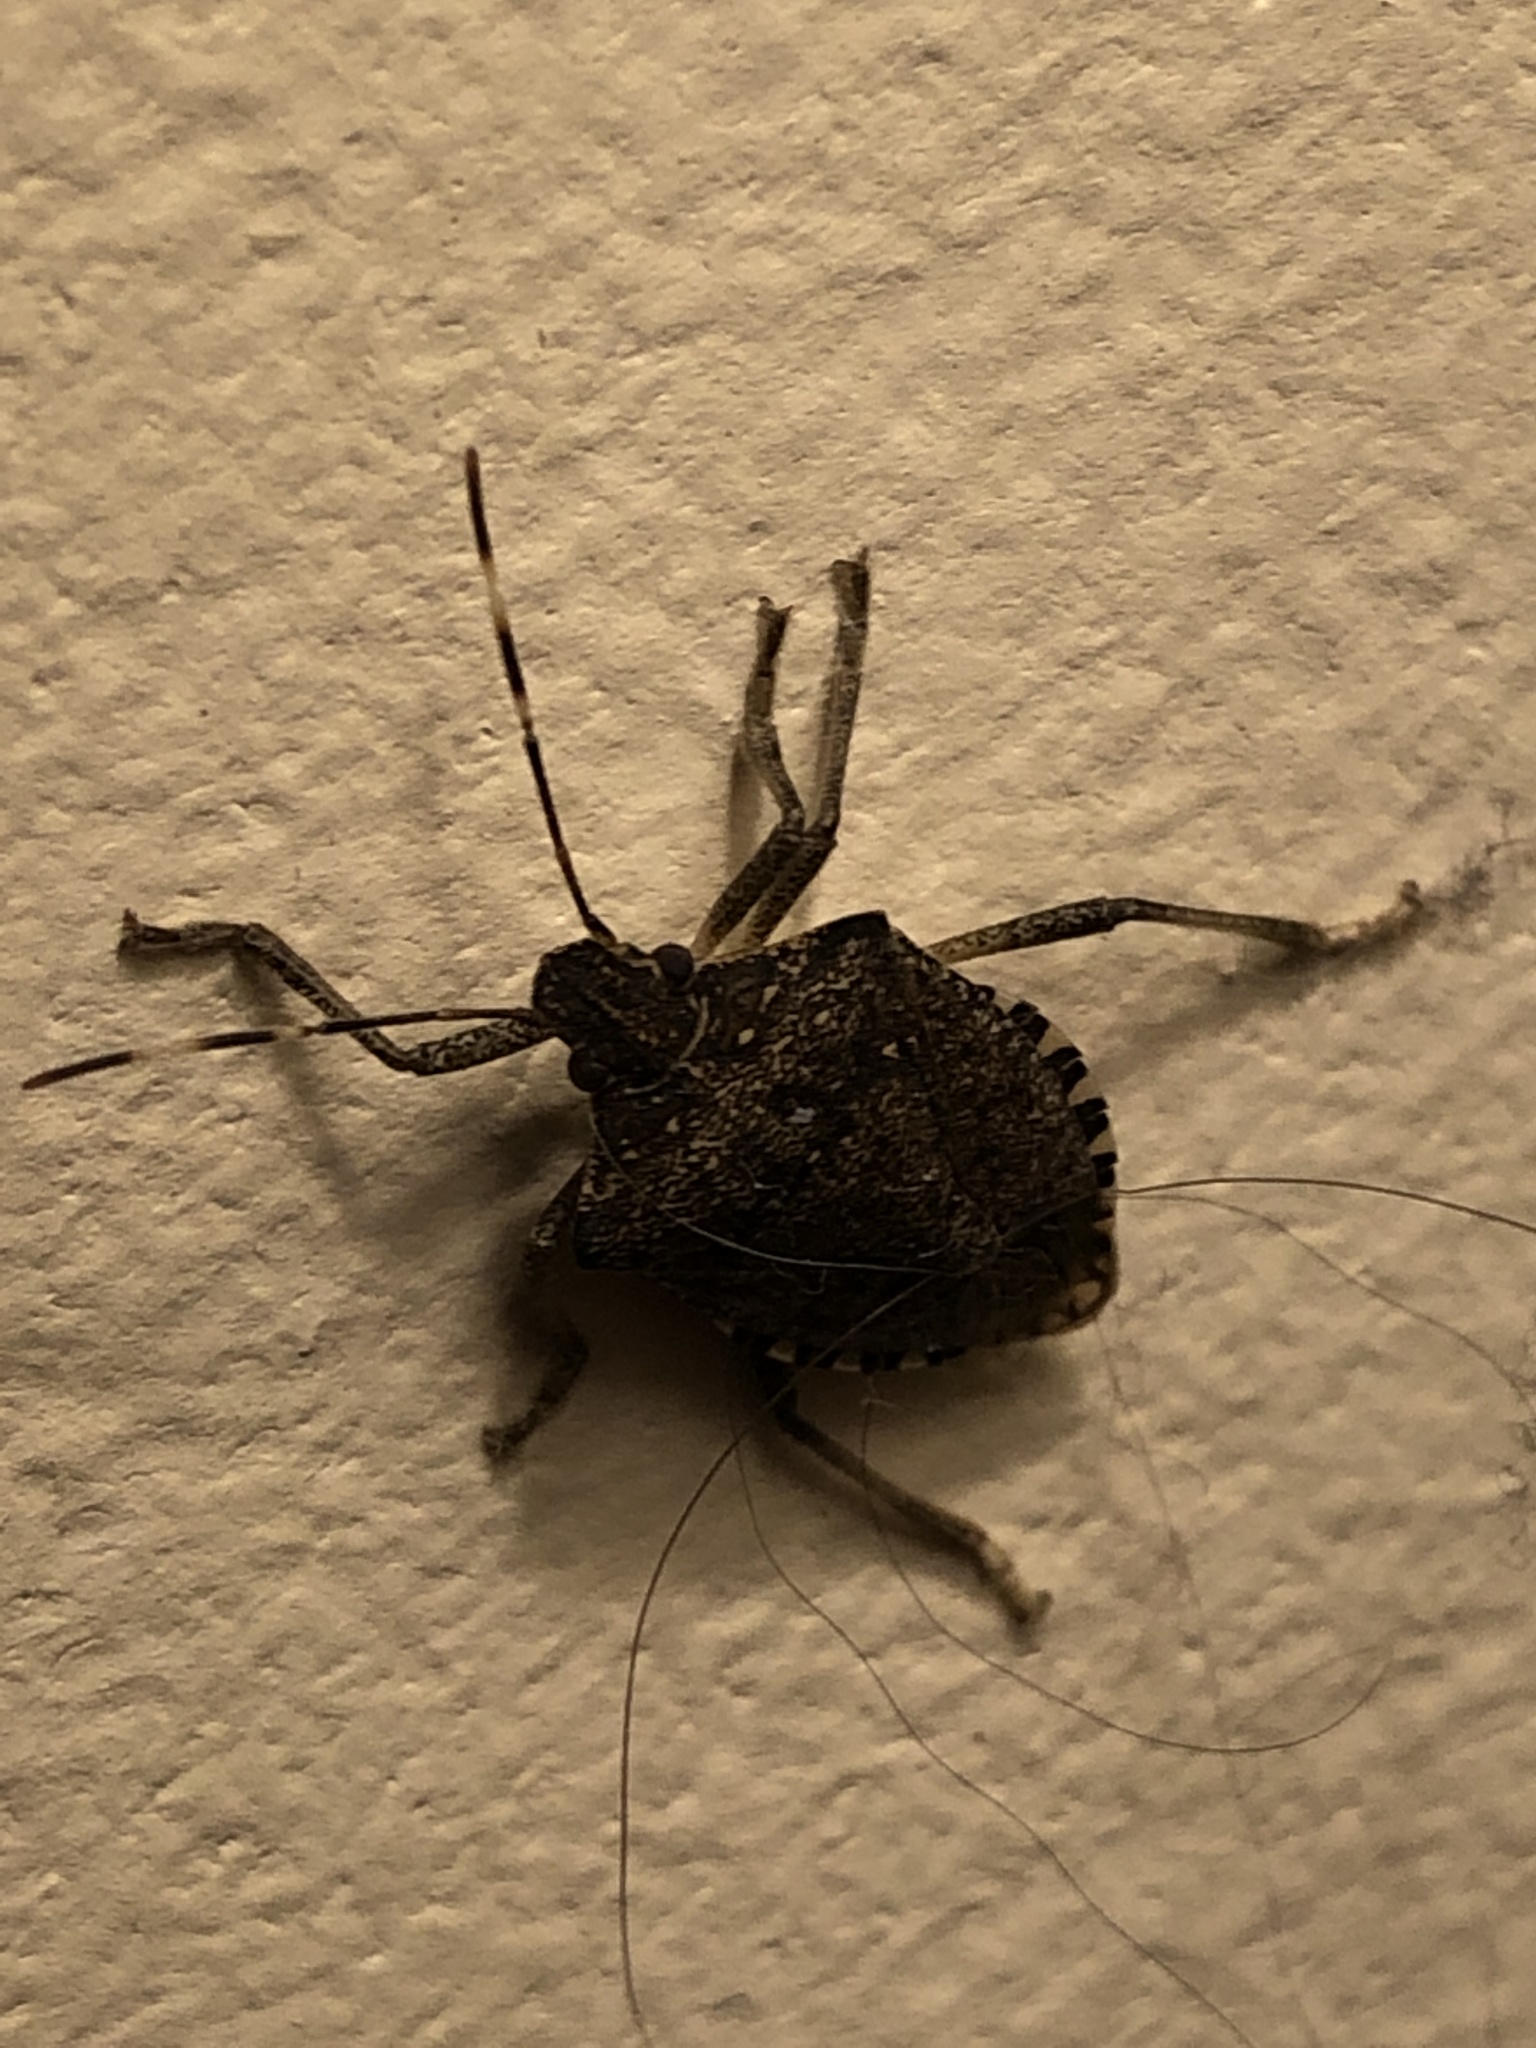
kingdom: Animalia
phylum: Arthropoda
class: Insecta
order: Hemiptera
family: Pentatomidae
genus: Halyomorpha
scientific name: Halyomorpha halys
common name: Brown marmorated stink bug
